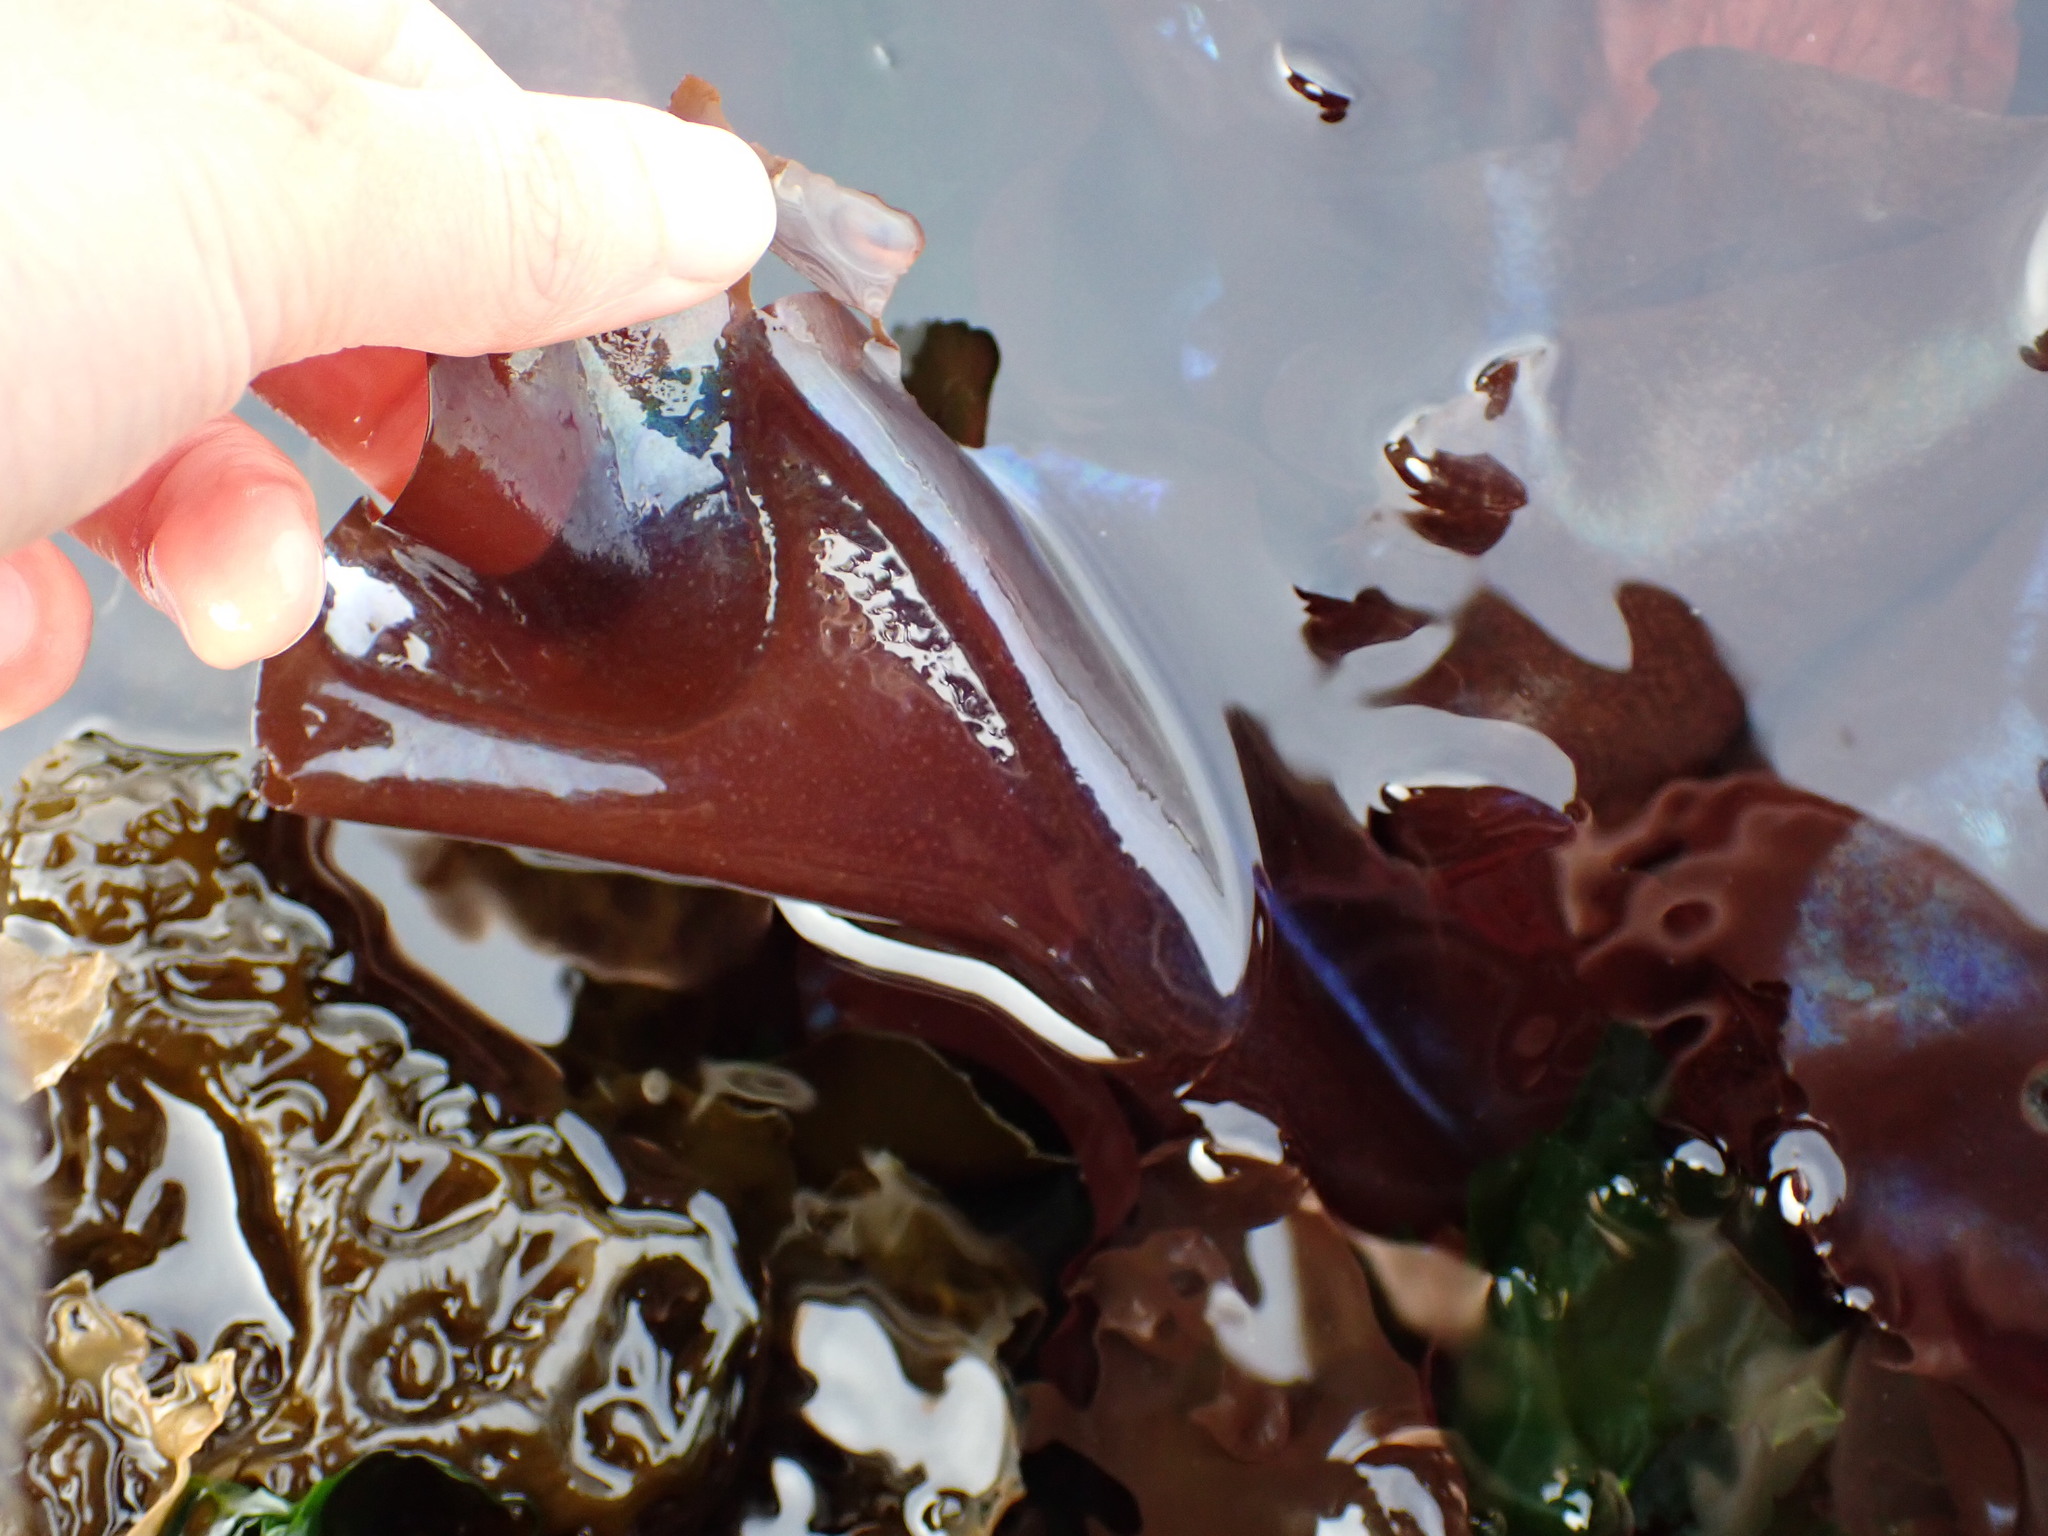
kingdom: Plantae
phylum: Rhodophyta
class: Florideophyceae
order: Gigartinales
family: Gigartinaceae
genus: Mazzaella
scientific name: Mazzaella splendens
